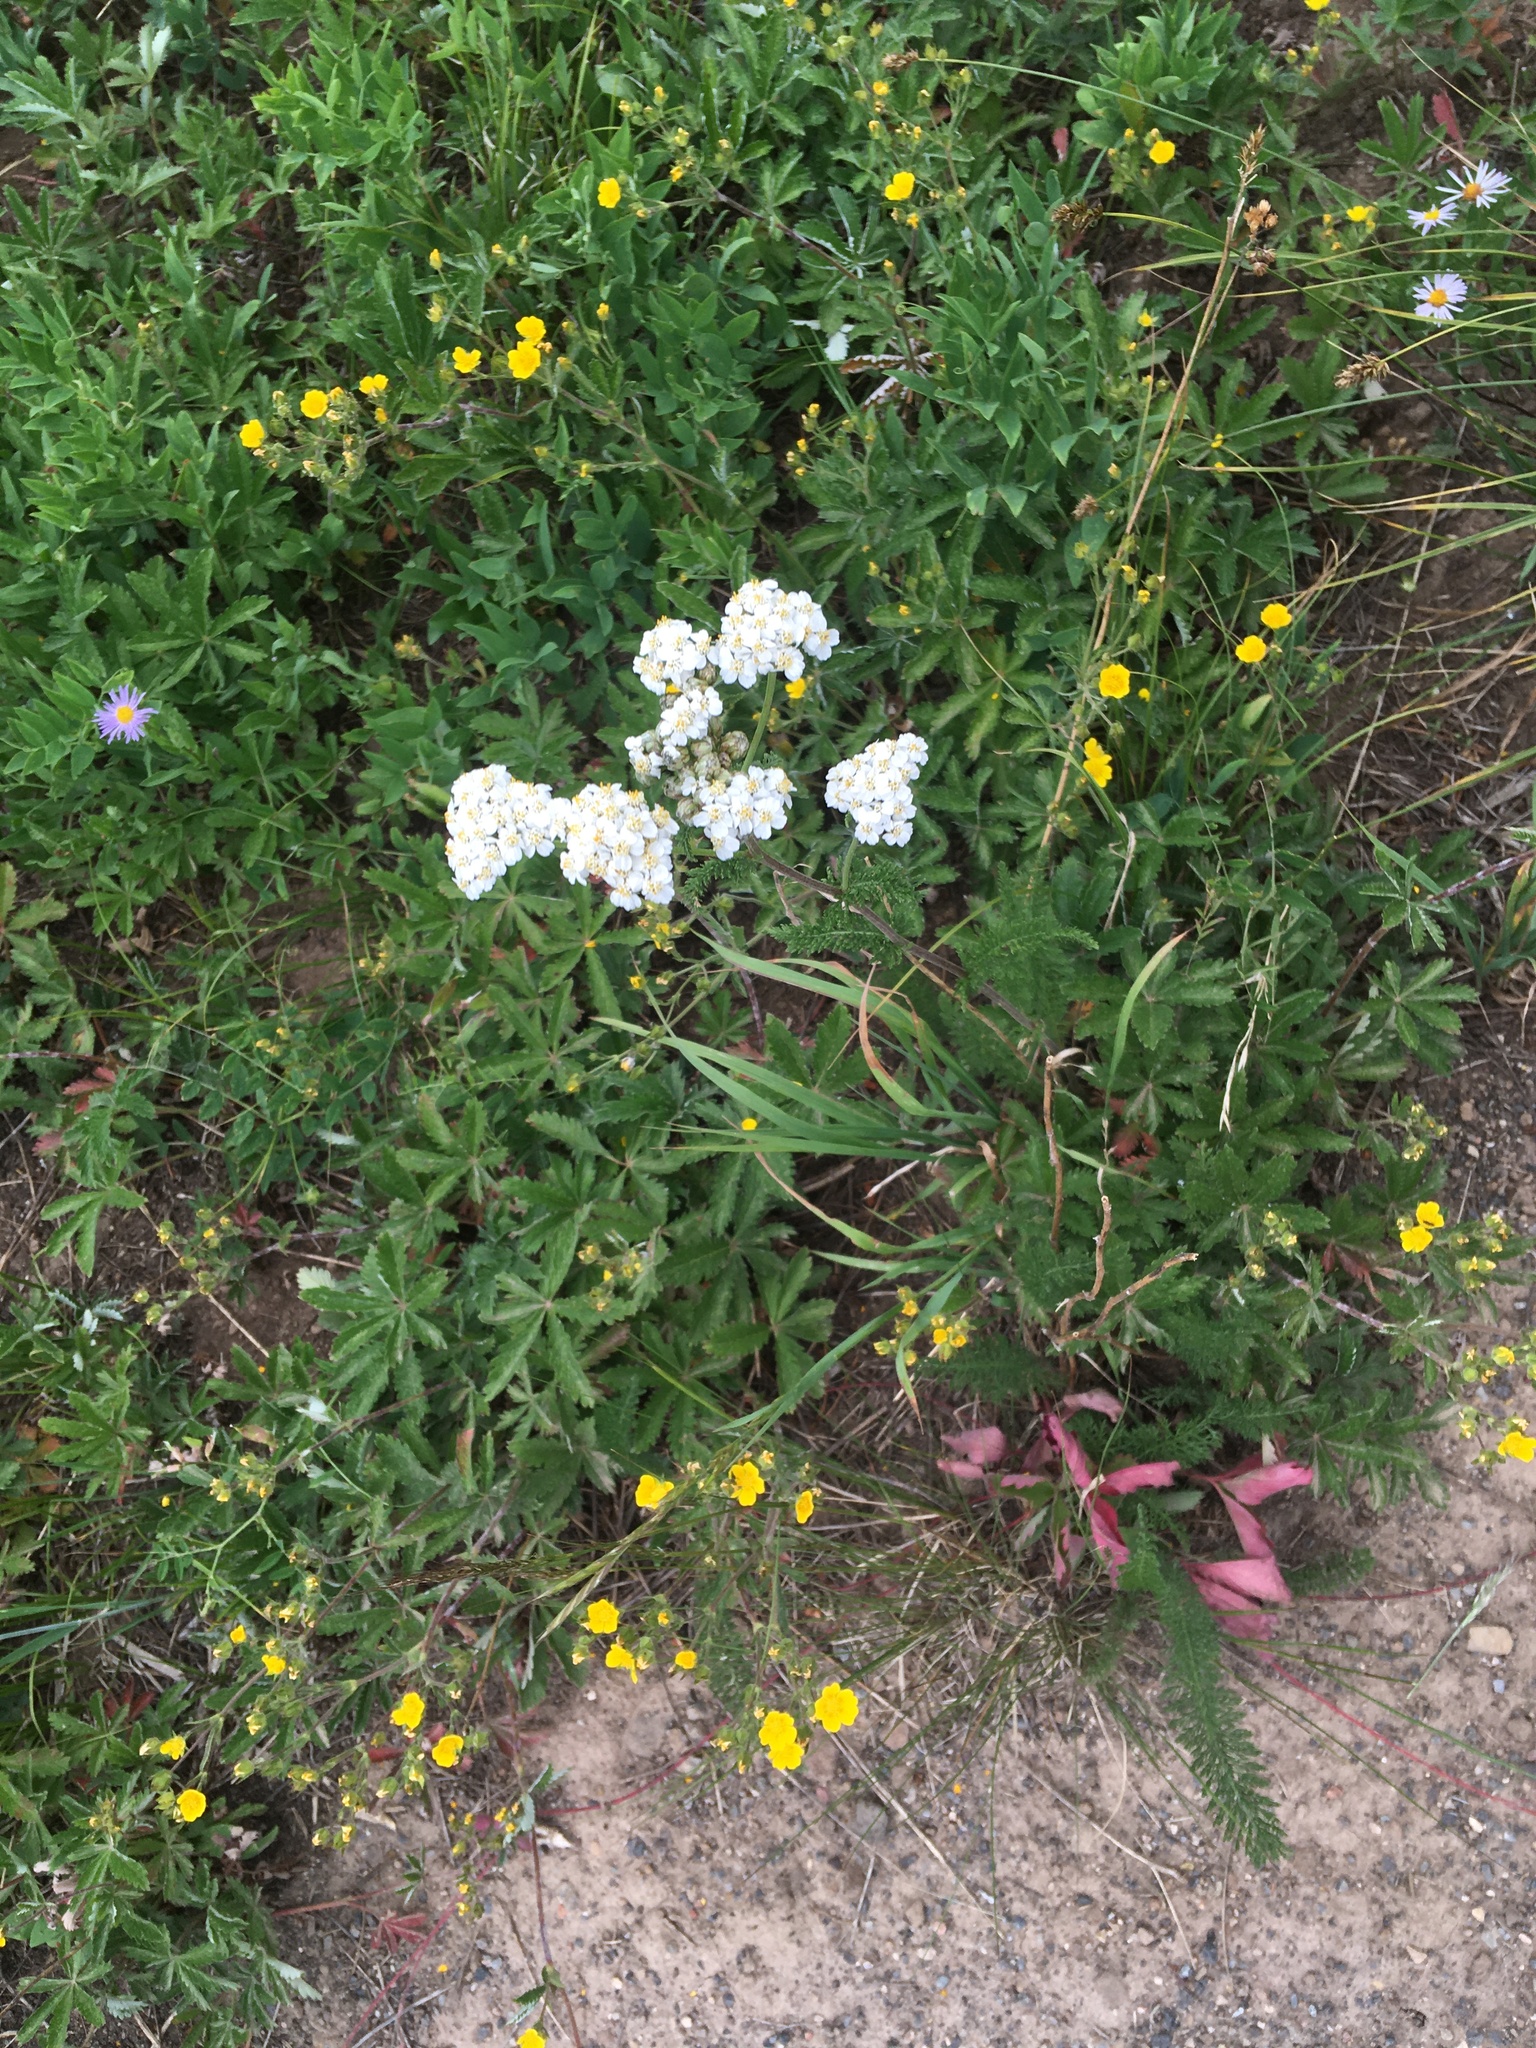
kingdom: Plantae
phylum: Tracheophyta
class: Magnoliopsida
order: Asterales
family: Asteraceae
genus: Achillea
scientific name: Achillea millefolium
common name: Yarrow
